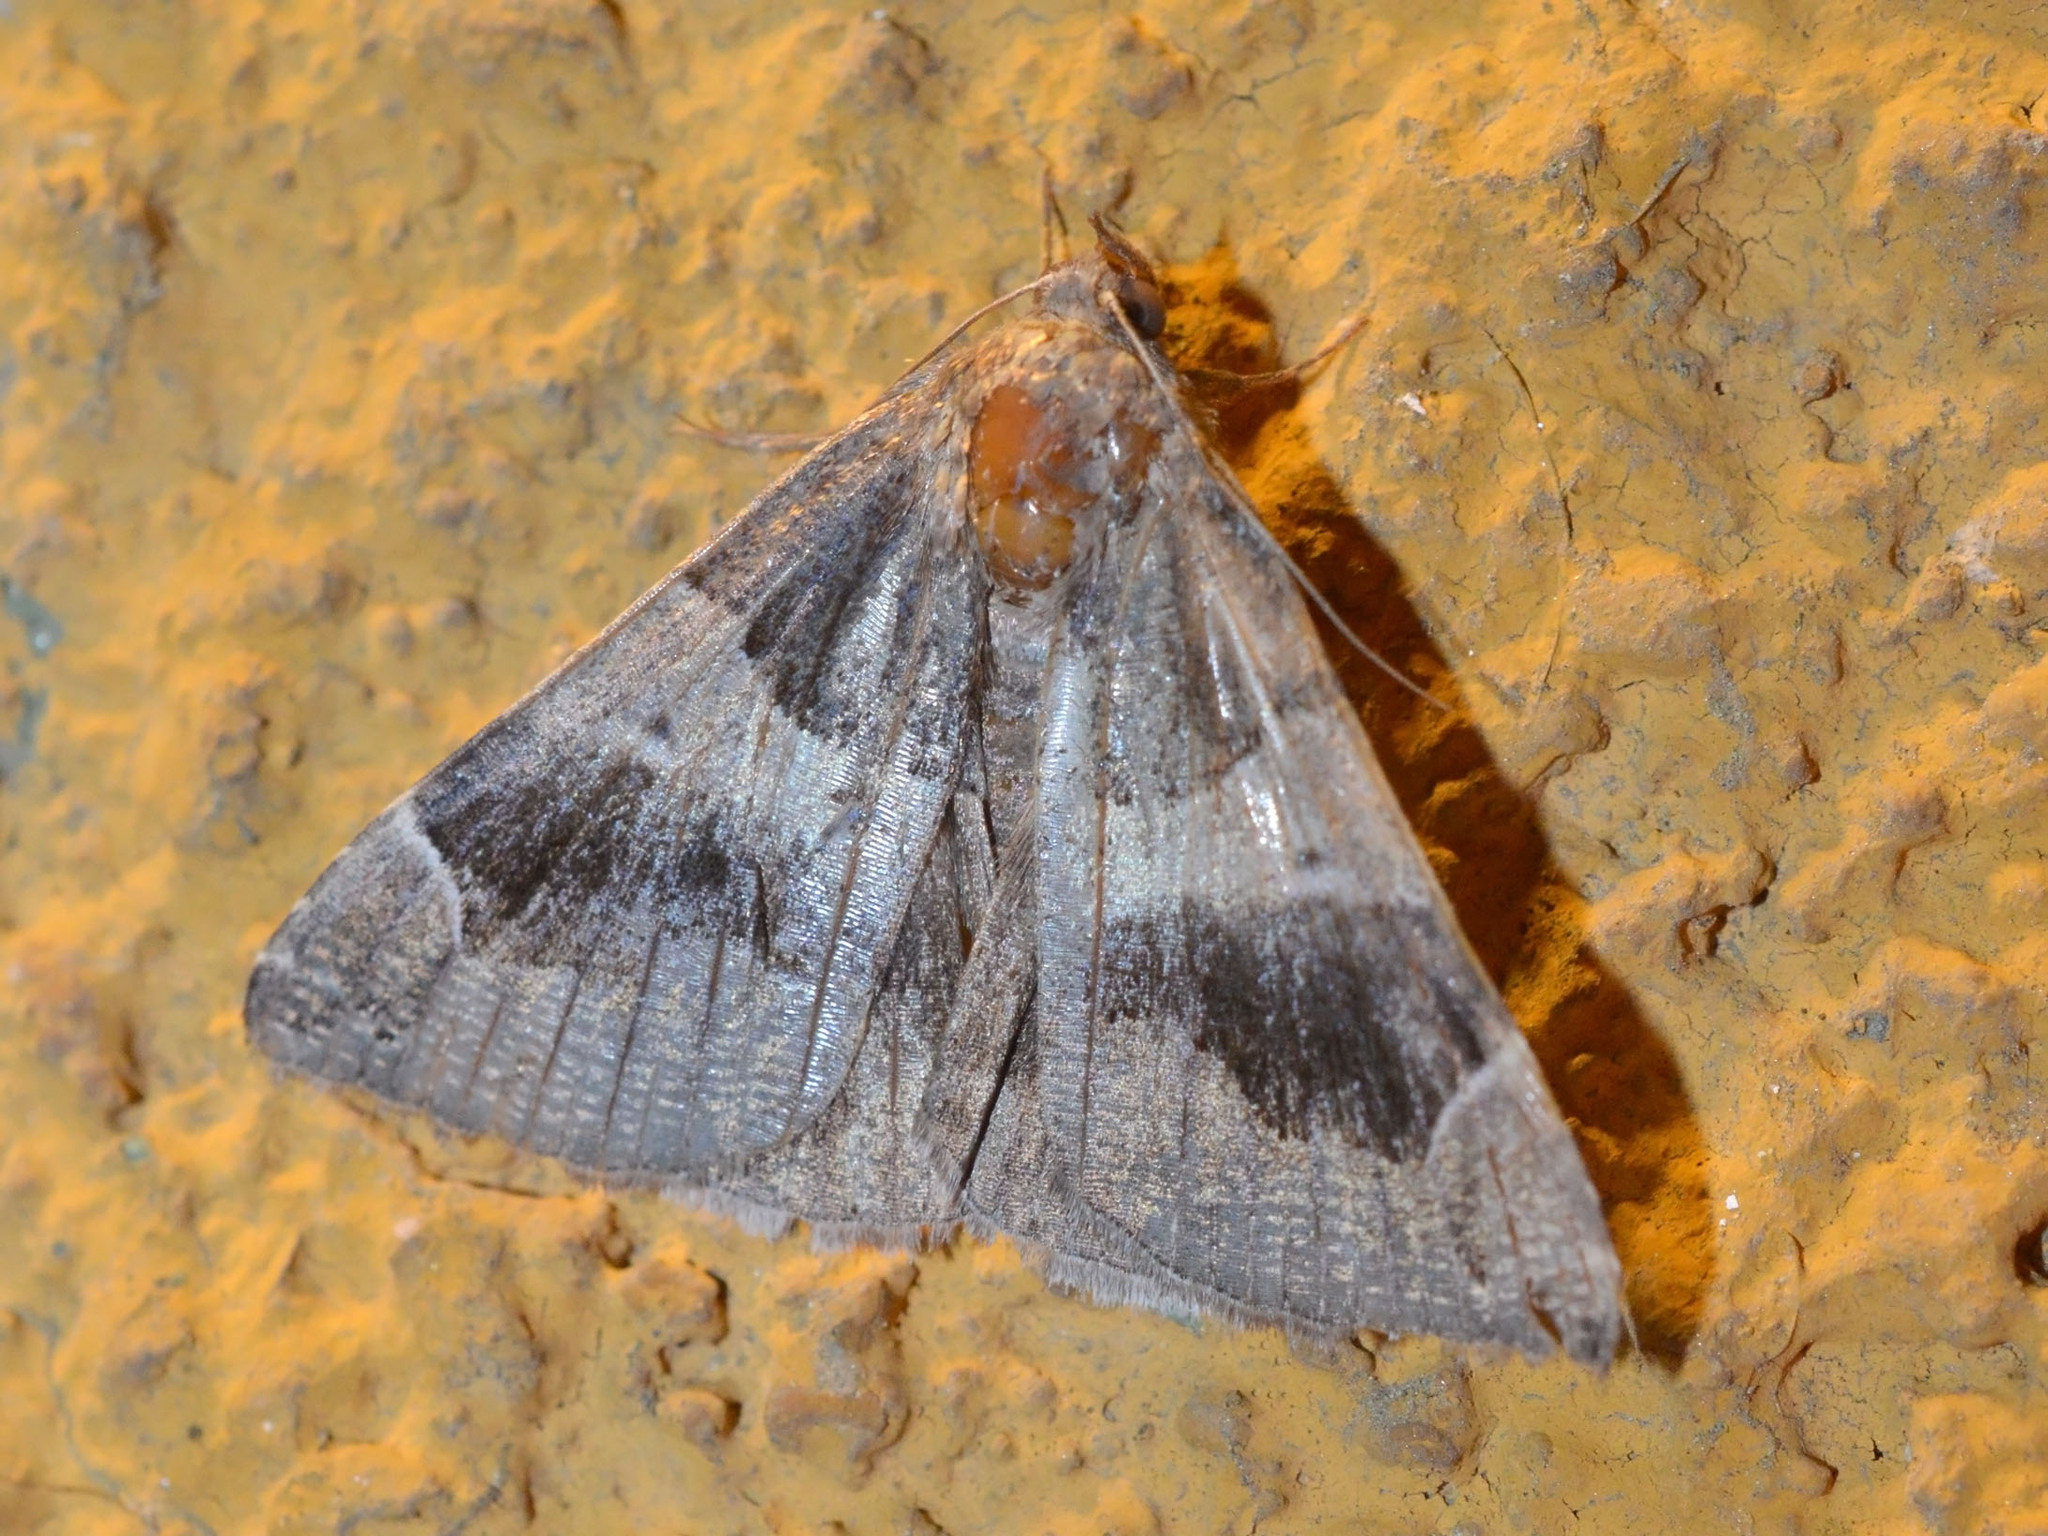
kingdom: Animalia
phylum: Arthropoda
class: Insecta
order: Lepidoptera
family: Erebidae
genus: Dysgonia
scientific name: Dysgonia algira
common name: Passenger
